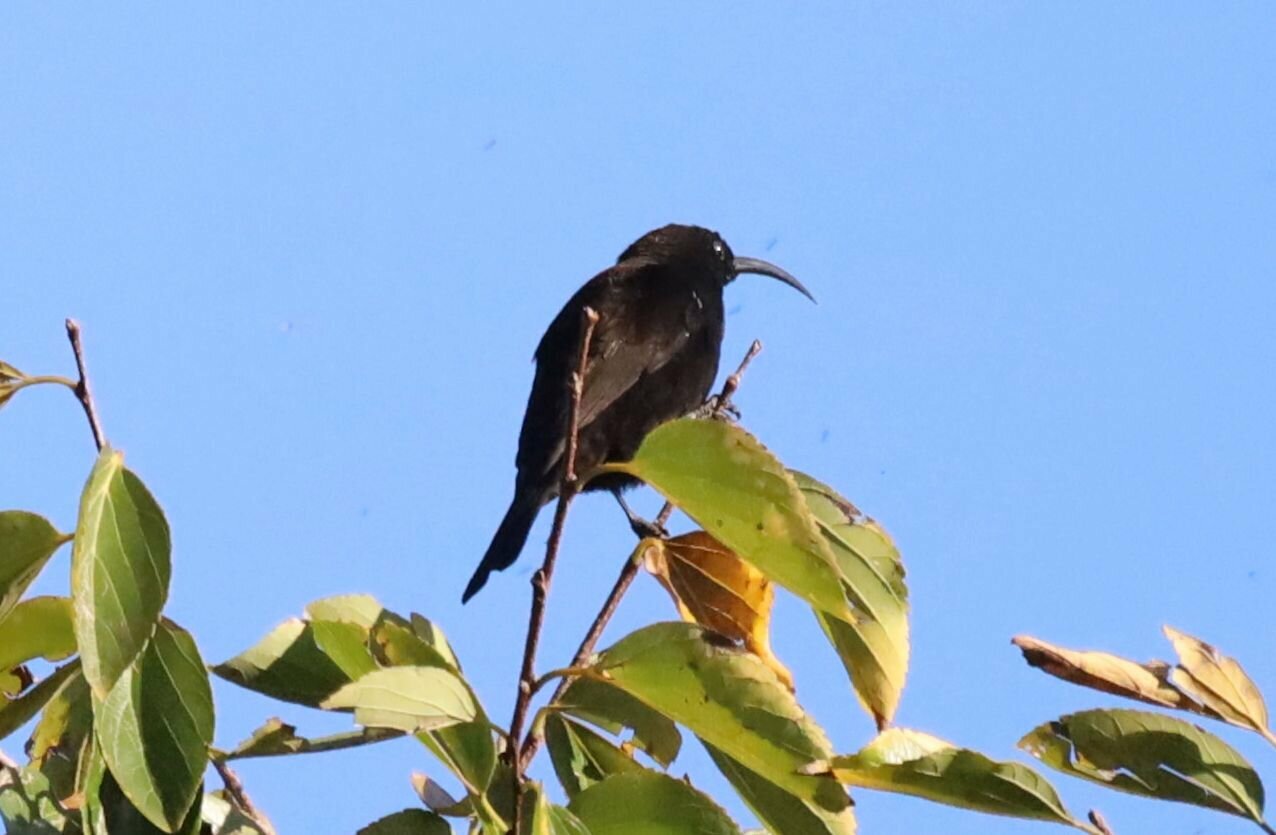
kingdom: Animalia
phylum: Chordata
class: Aves
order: Passeriformes
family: Nectariniidae
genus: Chalcomitra
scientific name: Chalcomitra amethystina
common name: Amethyst sunbird
